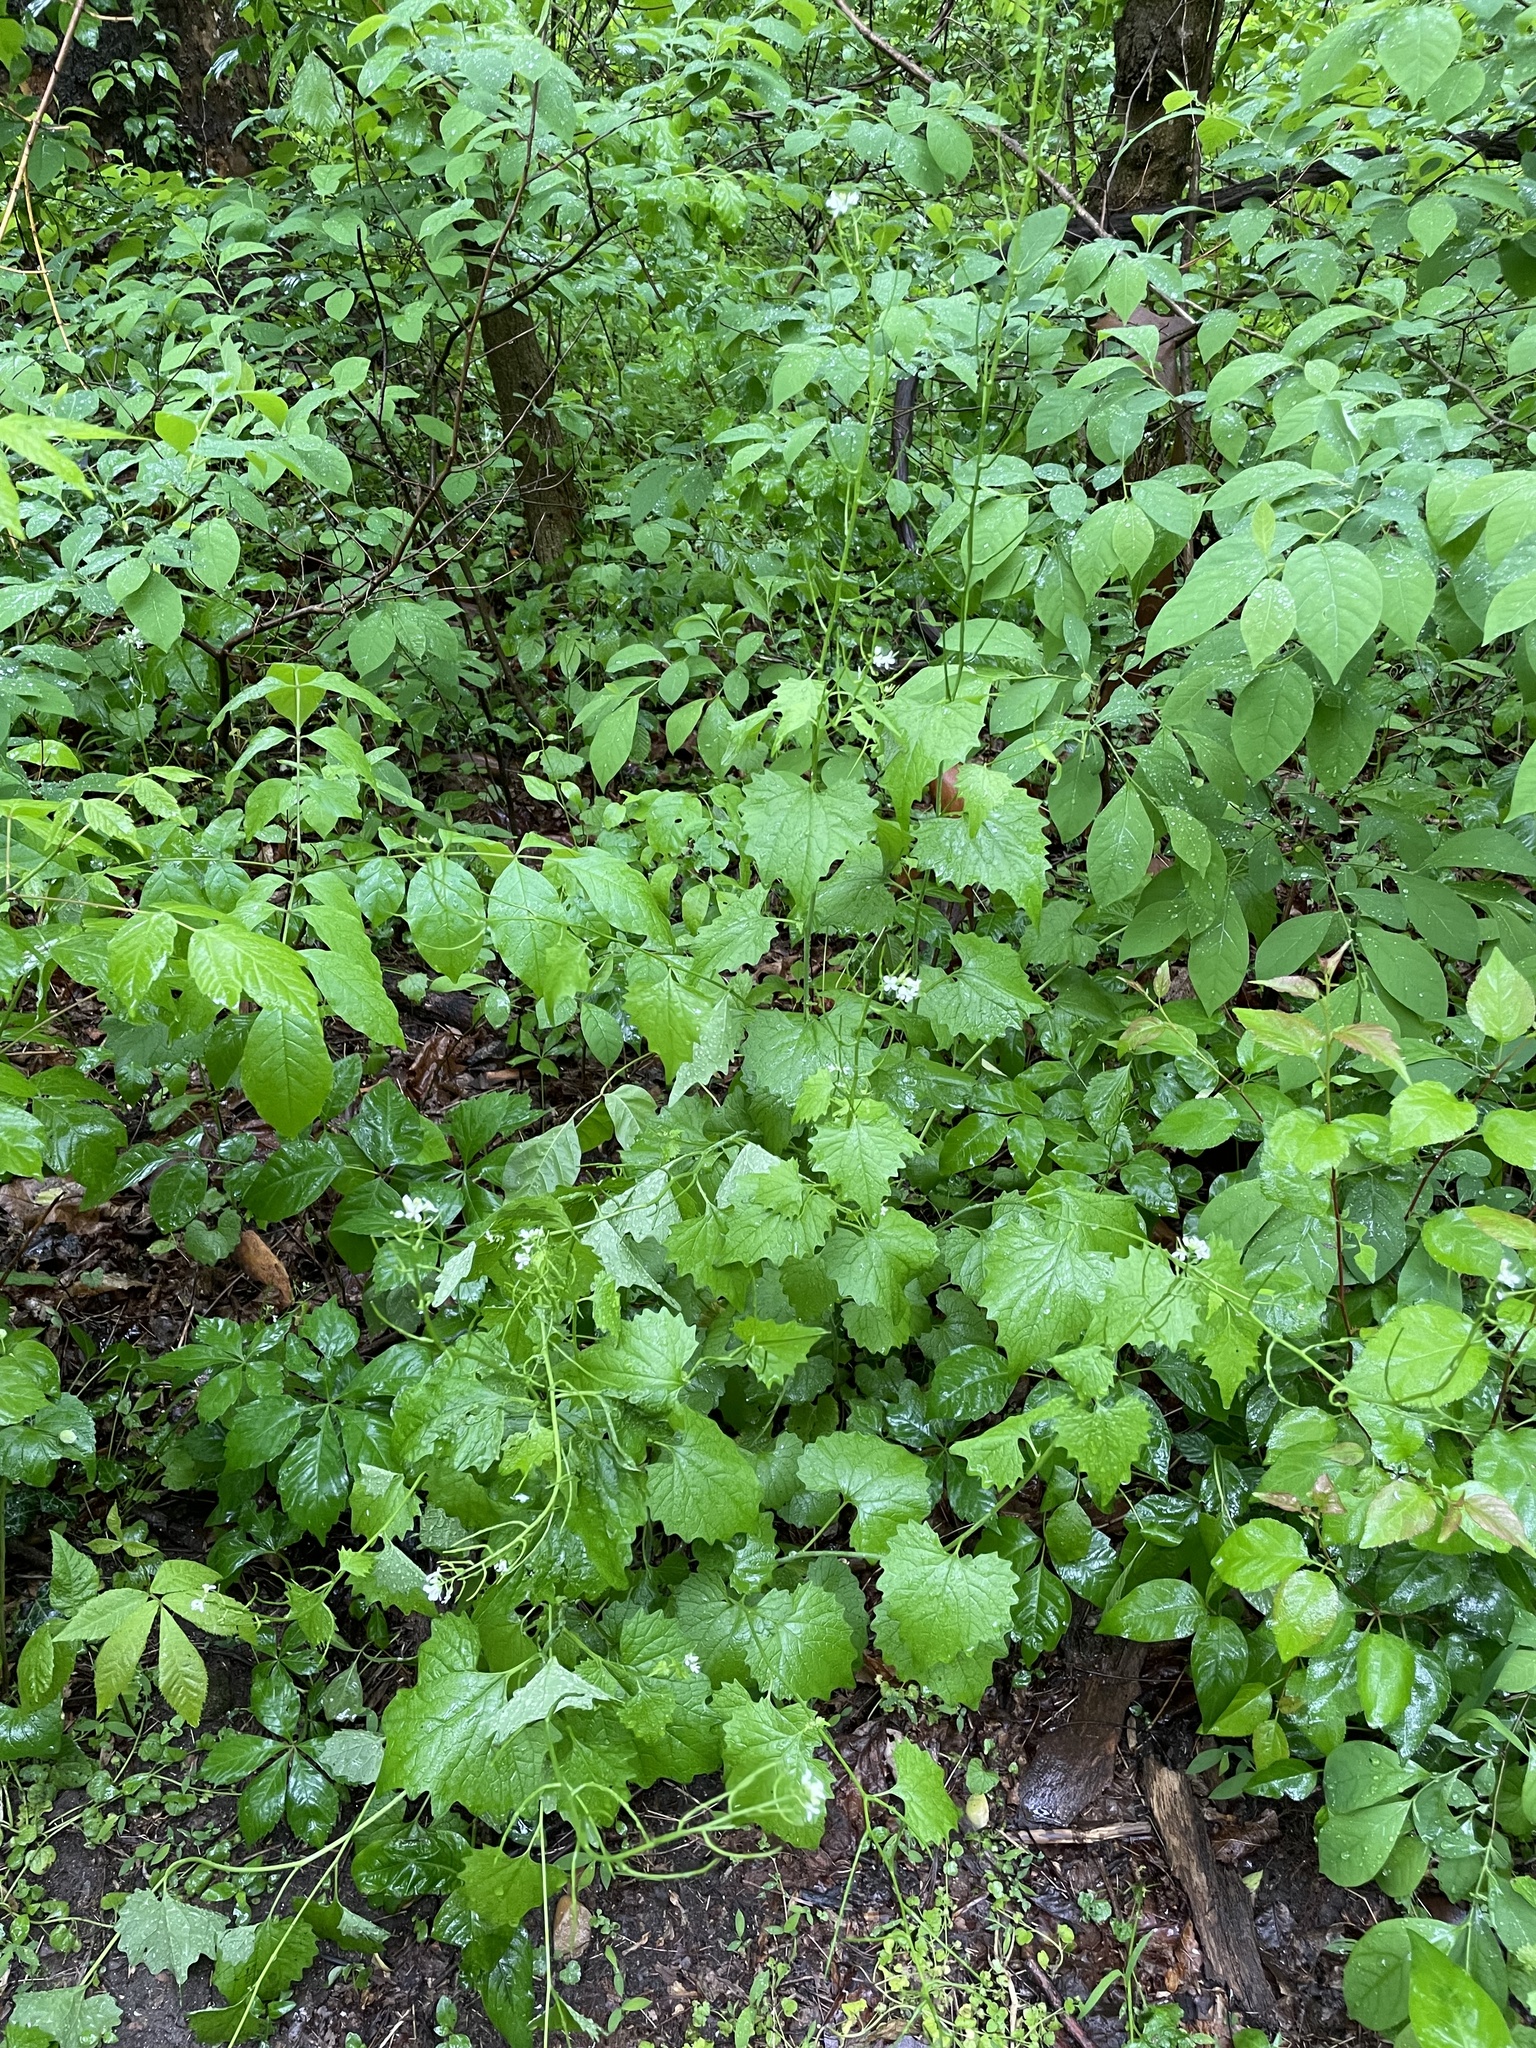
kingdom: Plantae
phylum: Tracheophyta
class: Magnoliopsida
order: Brassicales
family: Brassicaceae
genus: Alliaria
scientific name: Alliaria petiolata
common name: Garlic mustard
